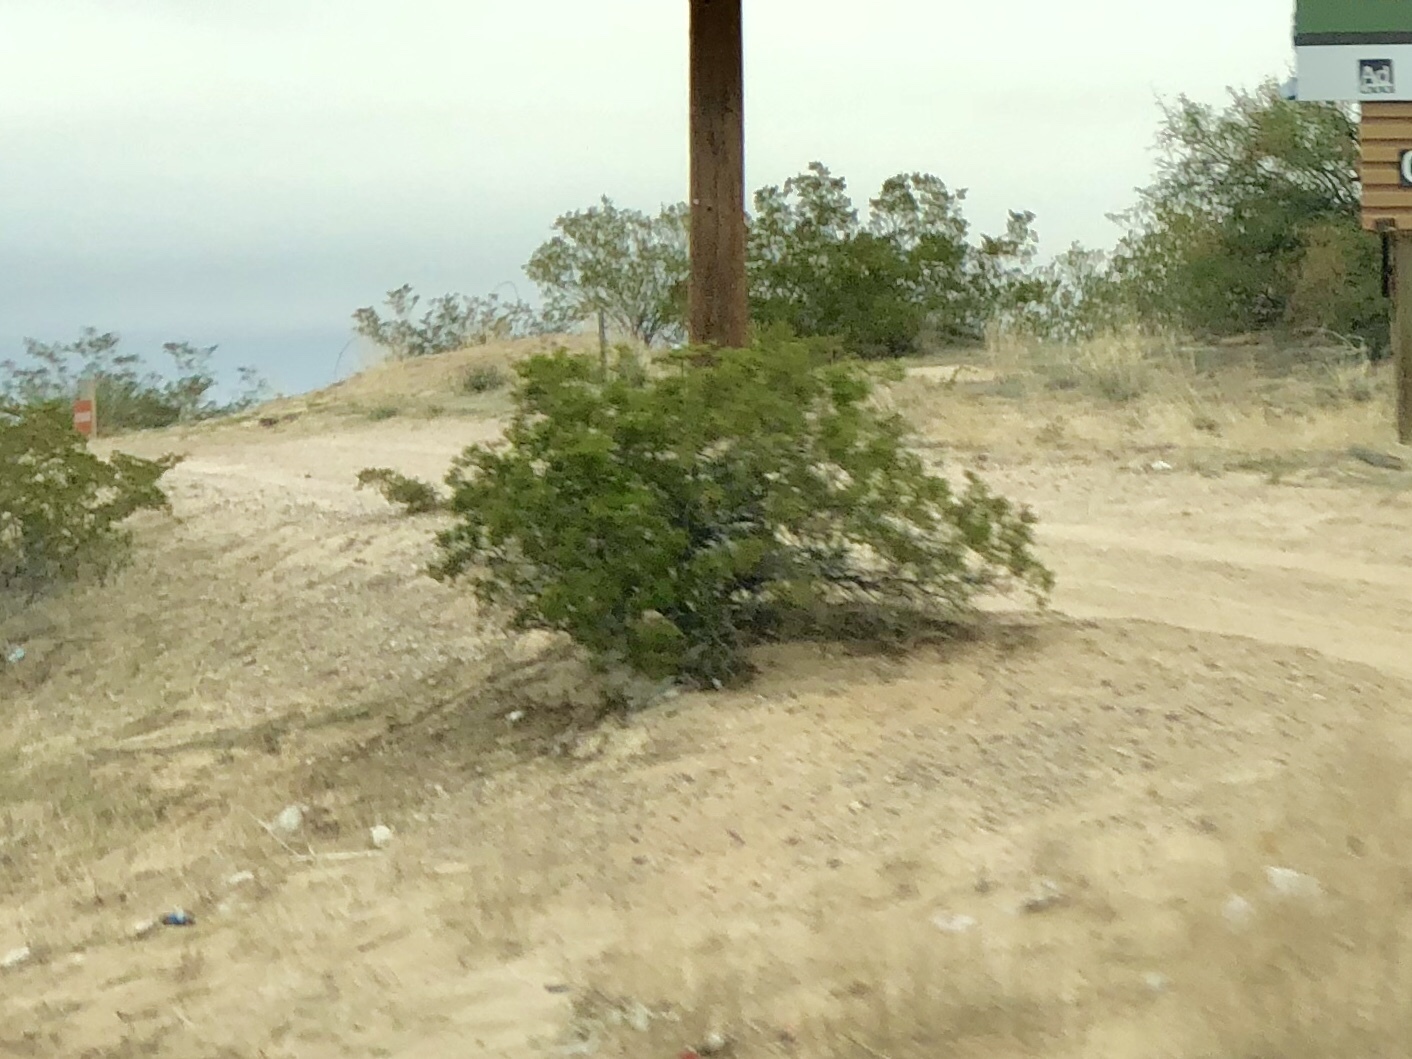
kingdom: Plantae
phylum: Tracheophyta
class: Magnoliopsida
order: Zygophyllales
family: Zygophyllaceae
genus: Larrea
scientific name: Larrea tridentata
